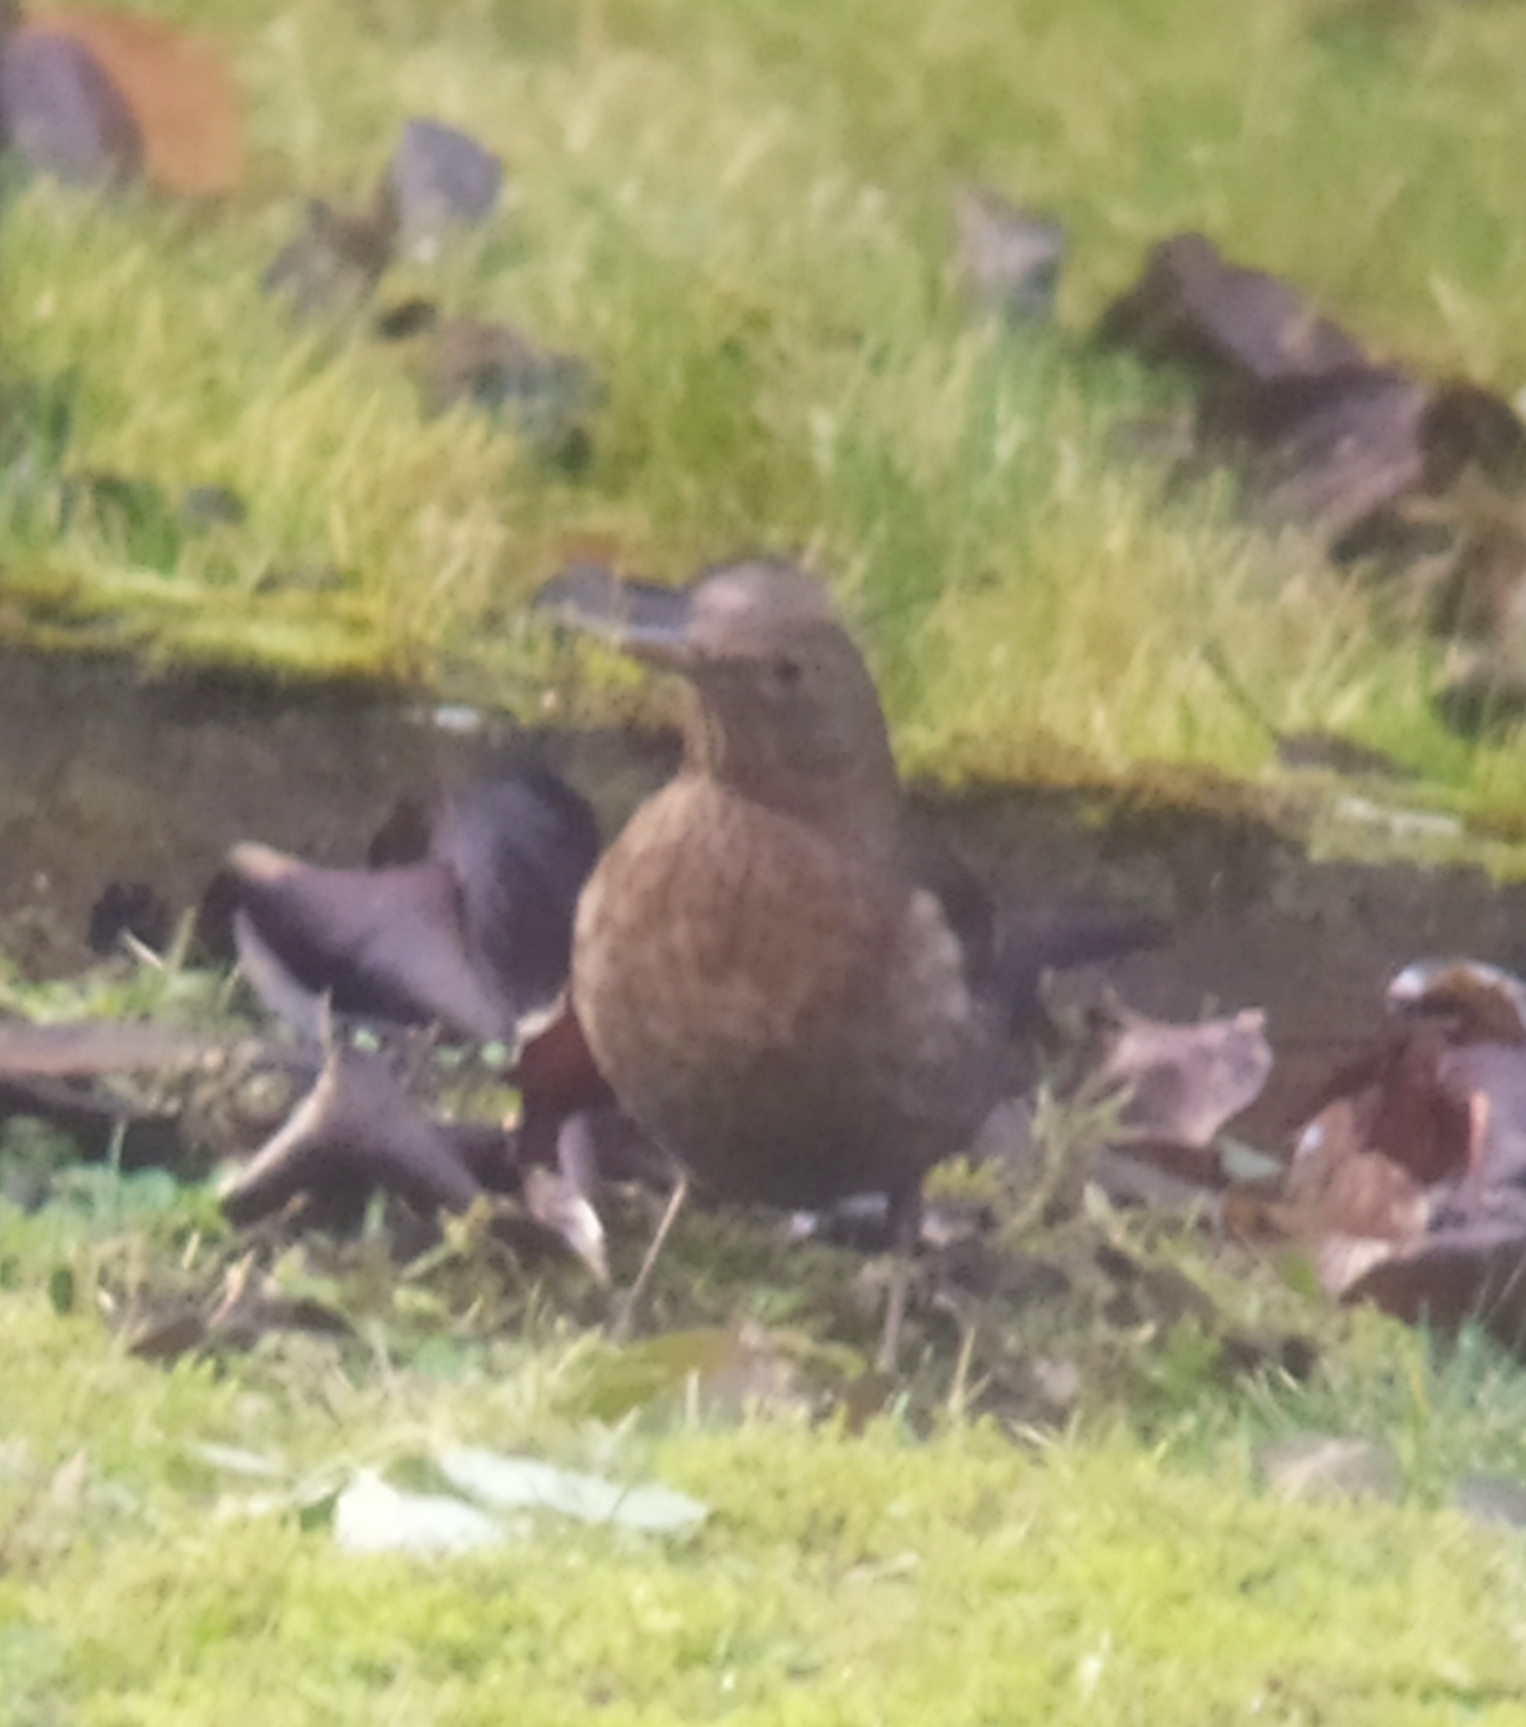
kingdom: Animalia
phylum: Chordata
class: Aves
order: Passeriformes
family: Turdidae
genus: Turdus
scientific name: Turdus merula
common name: Common blackbird
